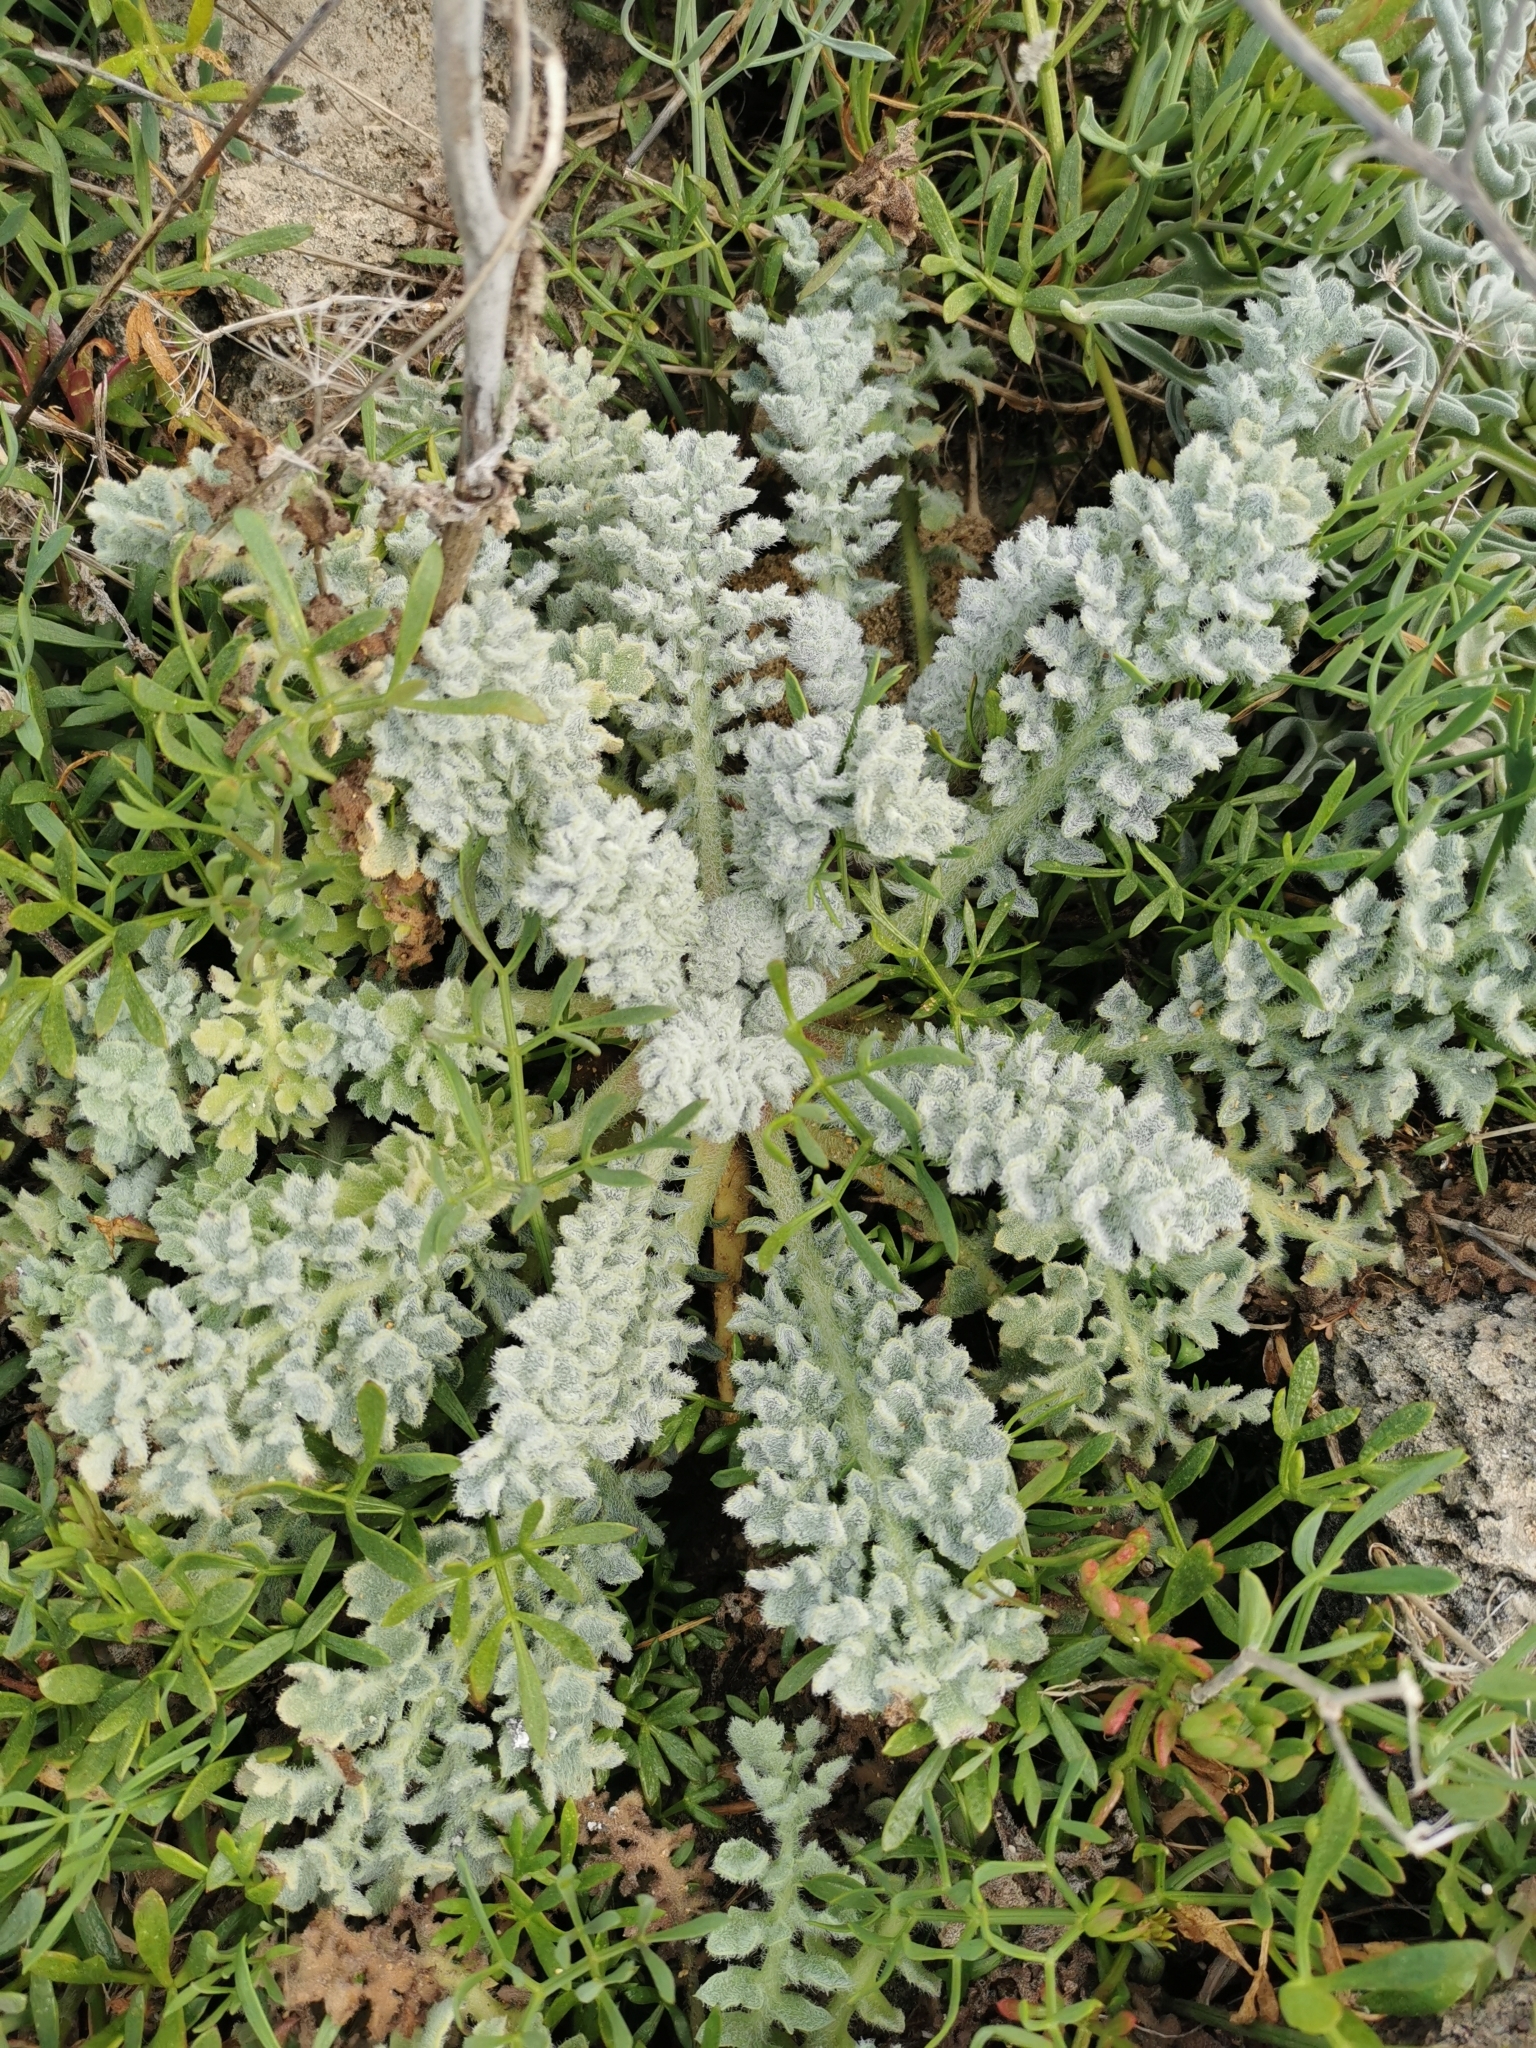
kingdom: Plantae
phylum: Tracheophyta
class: Magnoliopsida
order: Ranunculales
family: Papaveraceae
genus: Glaucium
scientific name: Glaucium flavum
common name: Yellow horned-poppy
